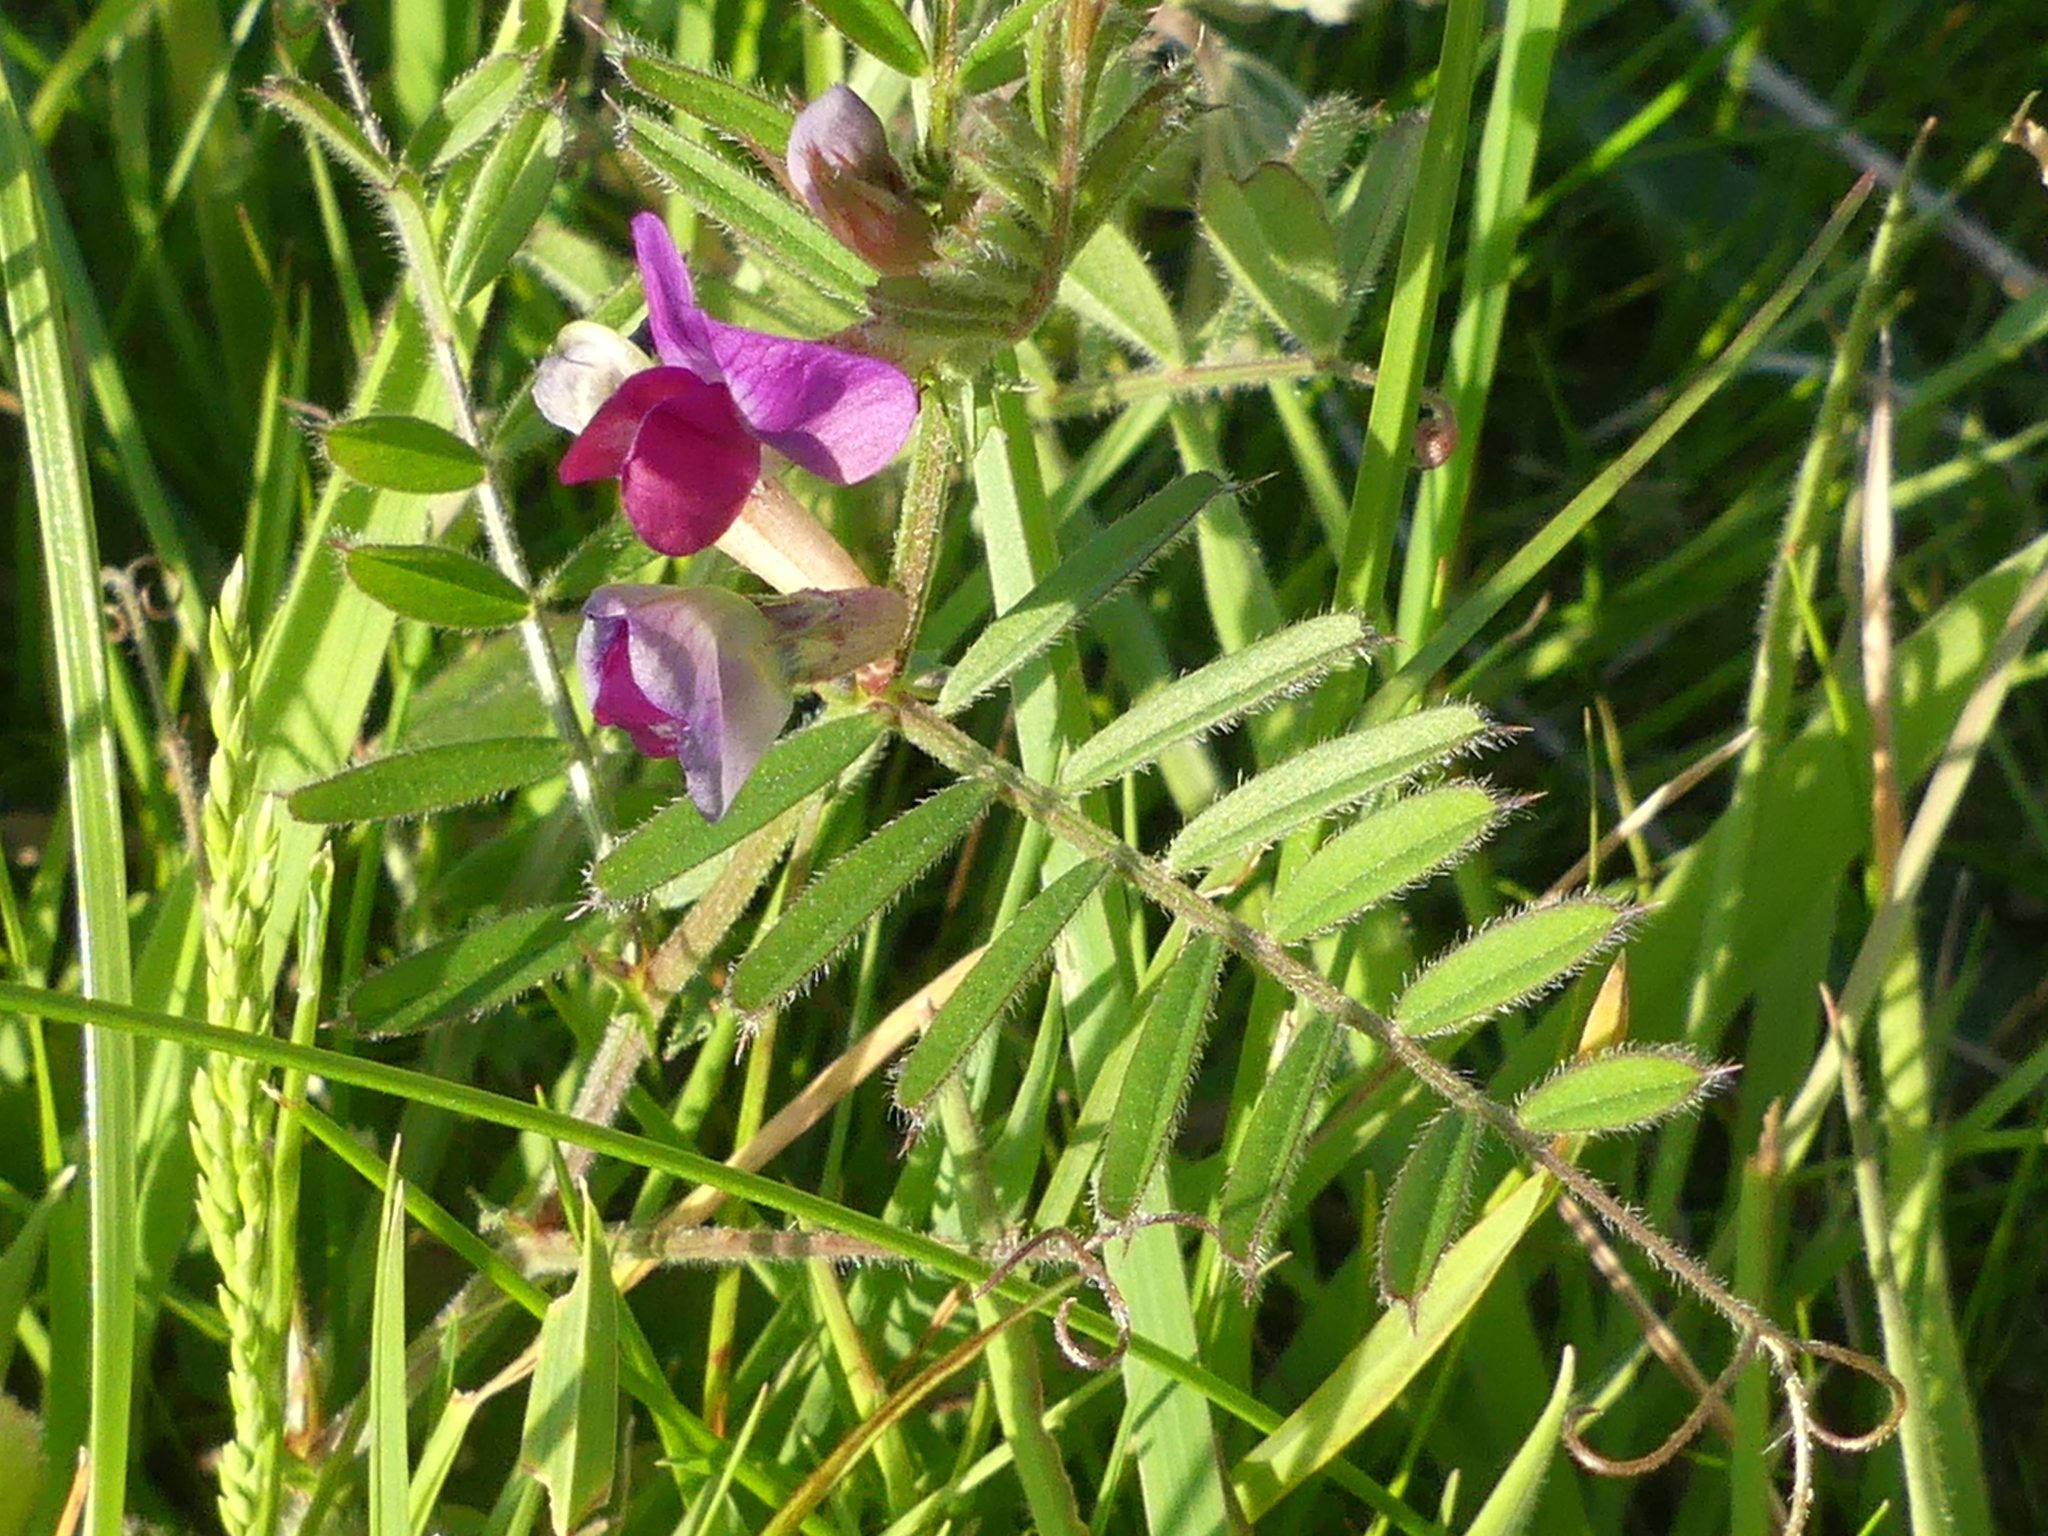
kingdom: Plantae
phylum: Tracheophyta
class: Magnoliopsida
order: Fabales
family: Fabaceae
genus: Vicia
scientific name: Vicia sativa
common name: Garden vetch
